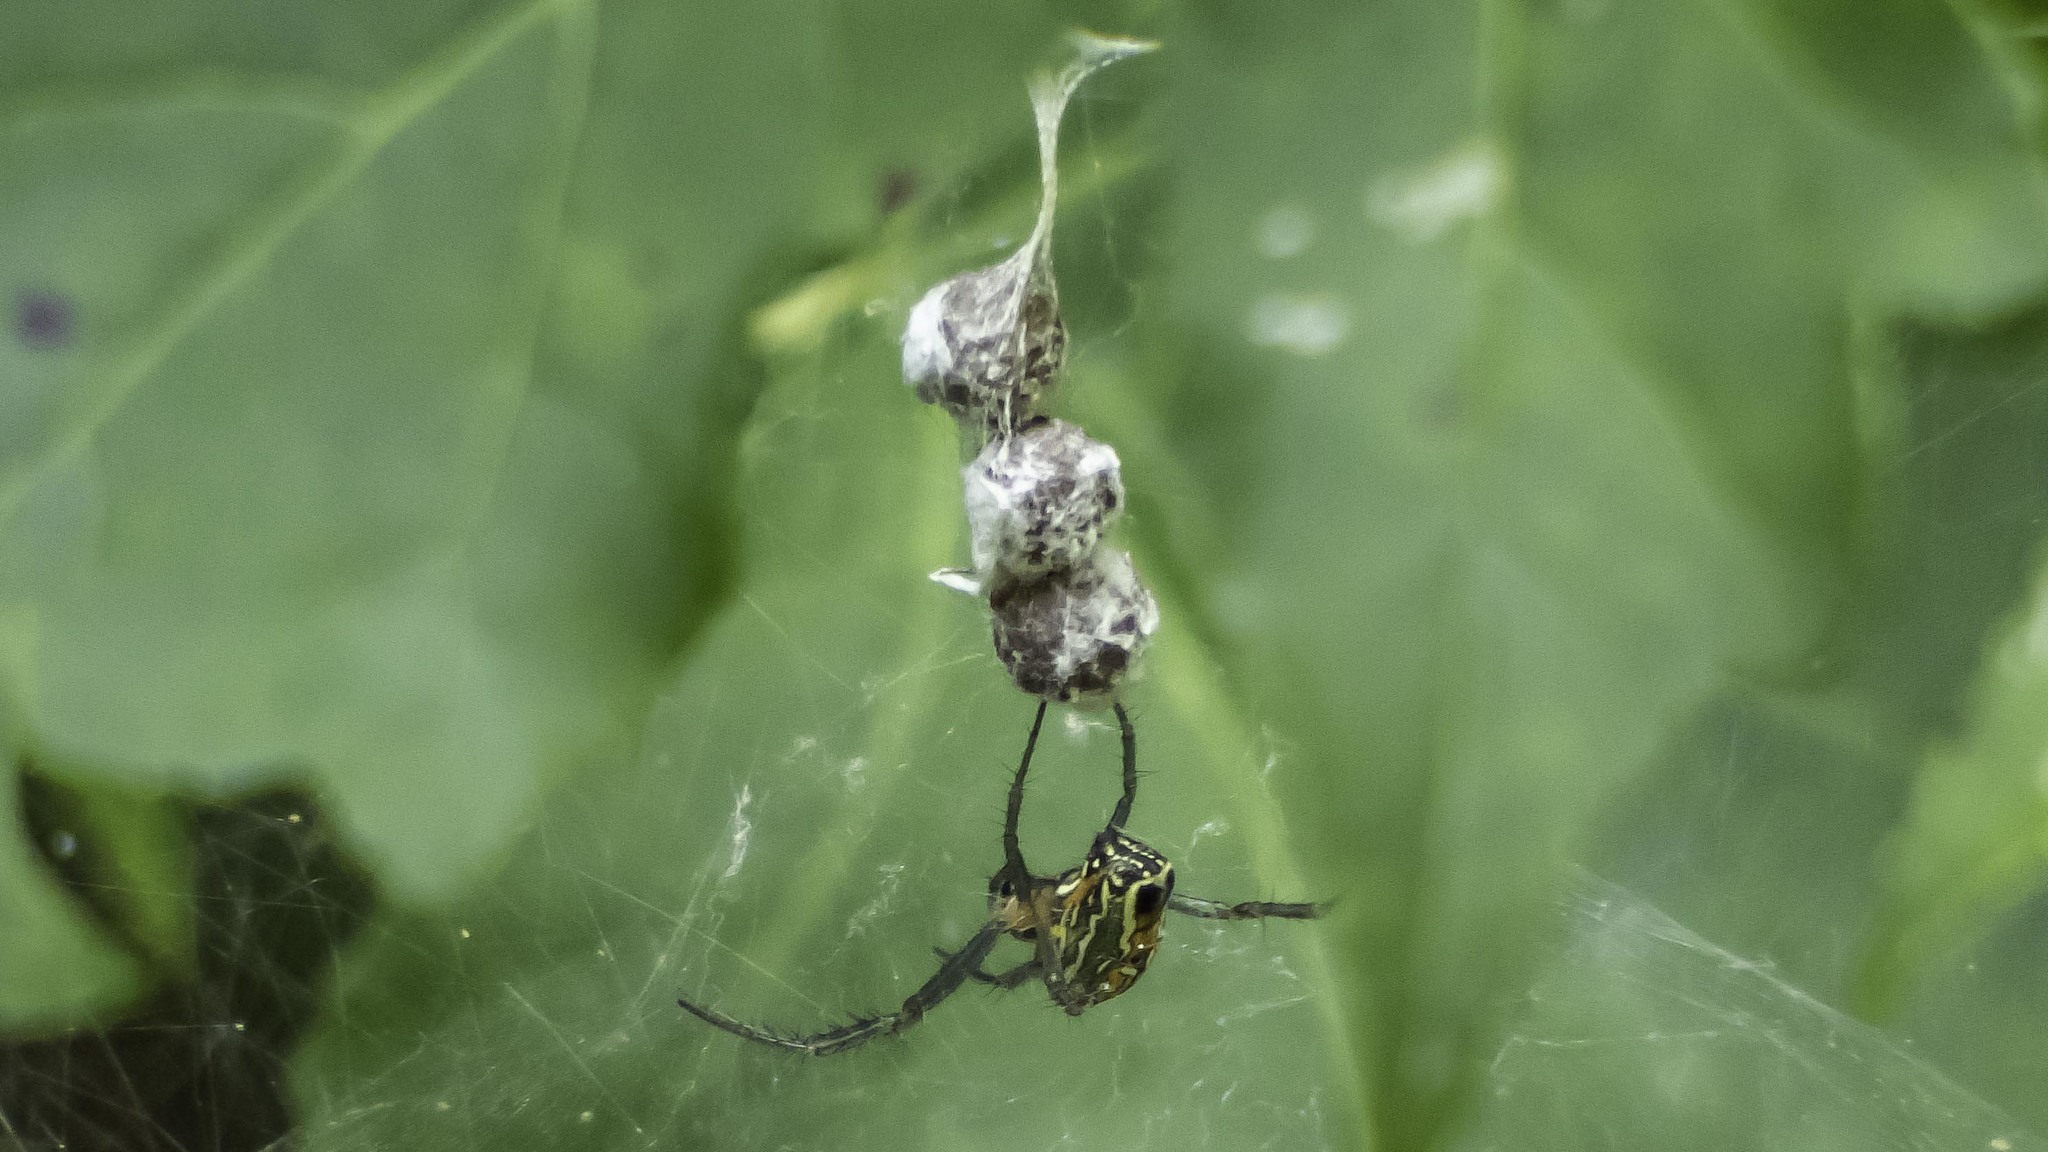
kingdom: Animalia
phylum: Arthropoda
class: Arachnida
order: Araneae
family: Araneidae
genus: Mecynogea
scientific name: Mecynogea lemniscata
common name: Orb weavers
